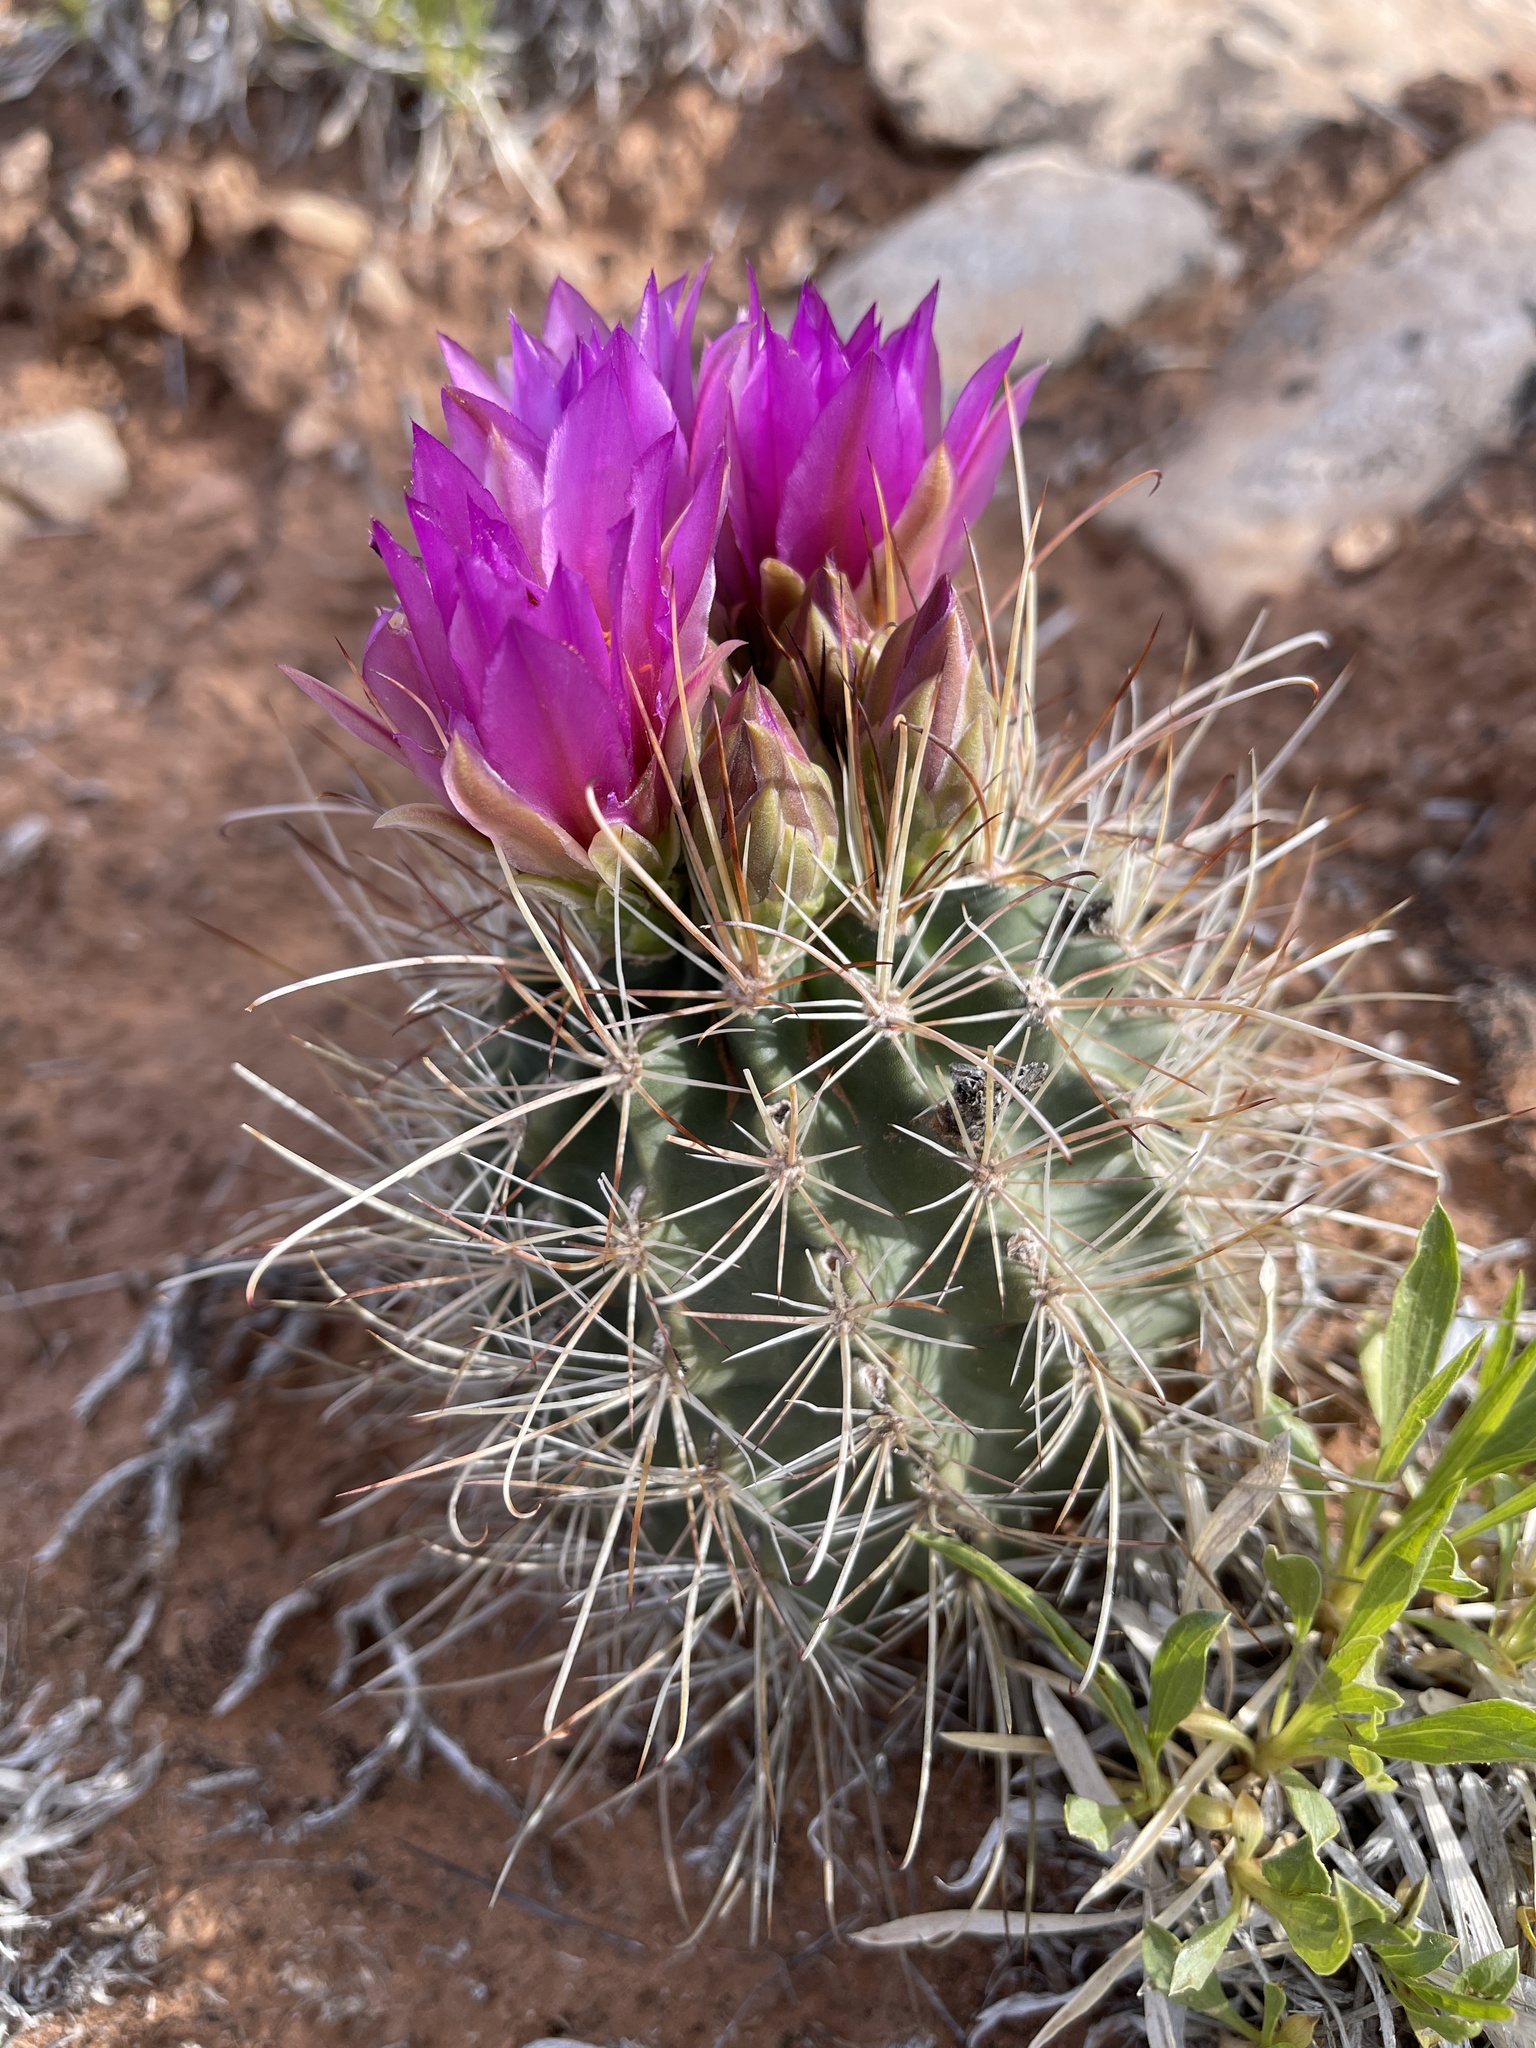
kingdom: Plantae
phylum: Tracheophyta
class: Magnoliopsida
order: Caryophyllales
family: Cactaceae
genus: Sclerocactus
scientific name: Sclerocactus parviflorus
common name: Small-flower fishhook cactus
